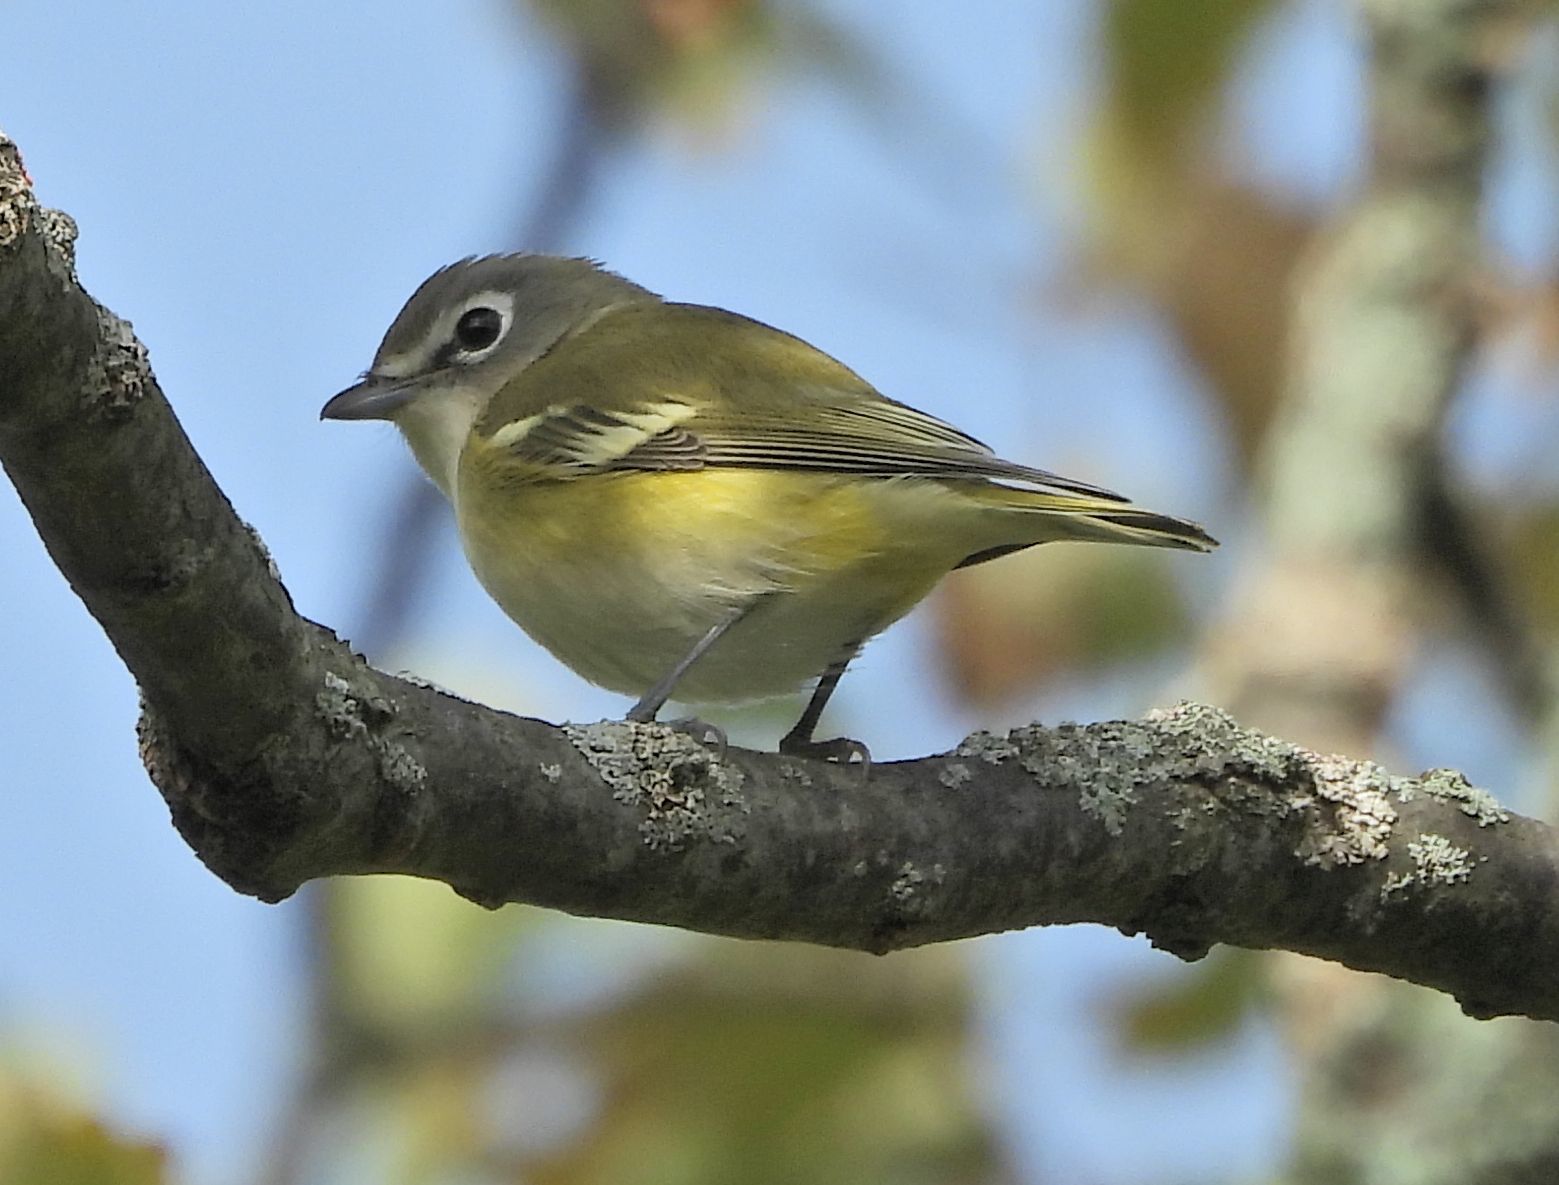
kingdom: Animalia
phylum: Chordata
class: Aves
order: Passeriformes
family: Vireonidae
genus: Vireo
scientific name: Vireo solitarius
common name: Blue-headed vireo
